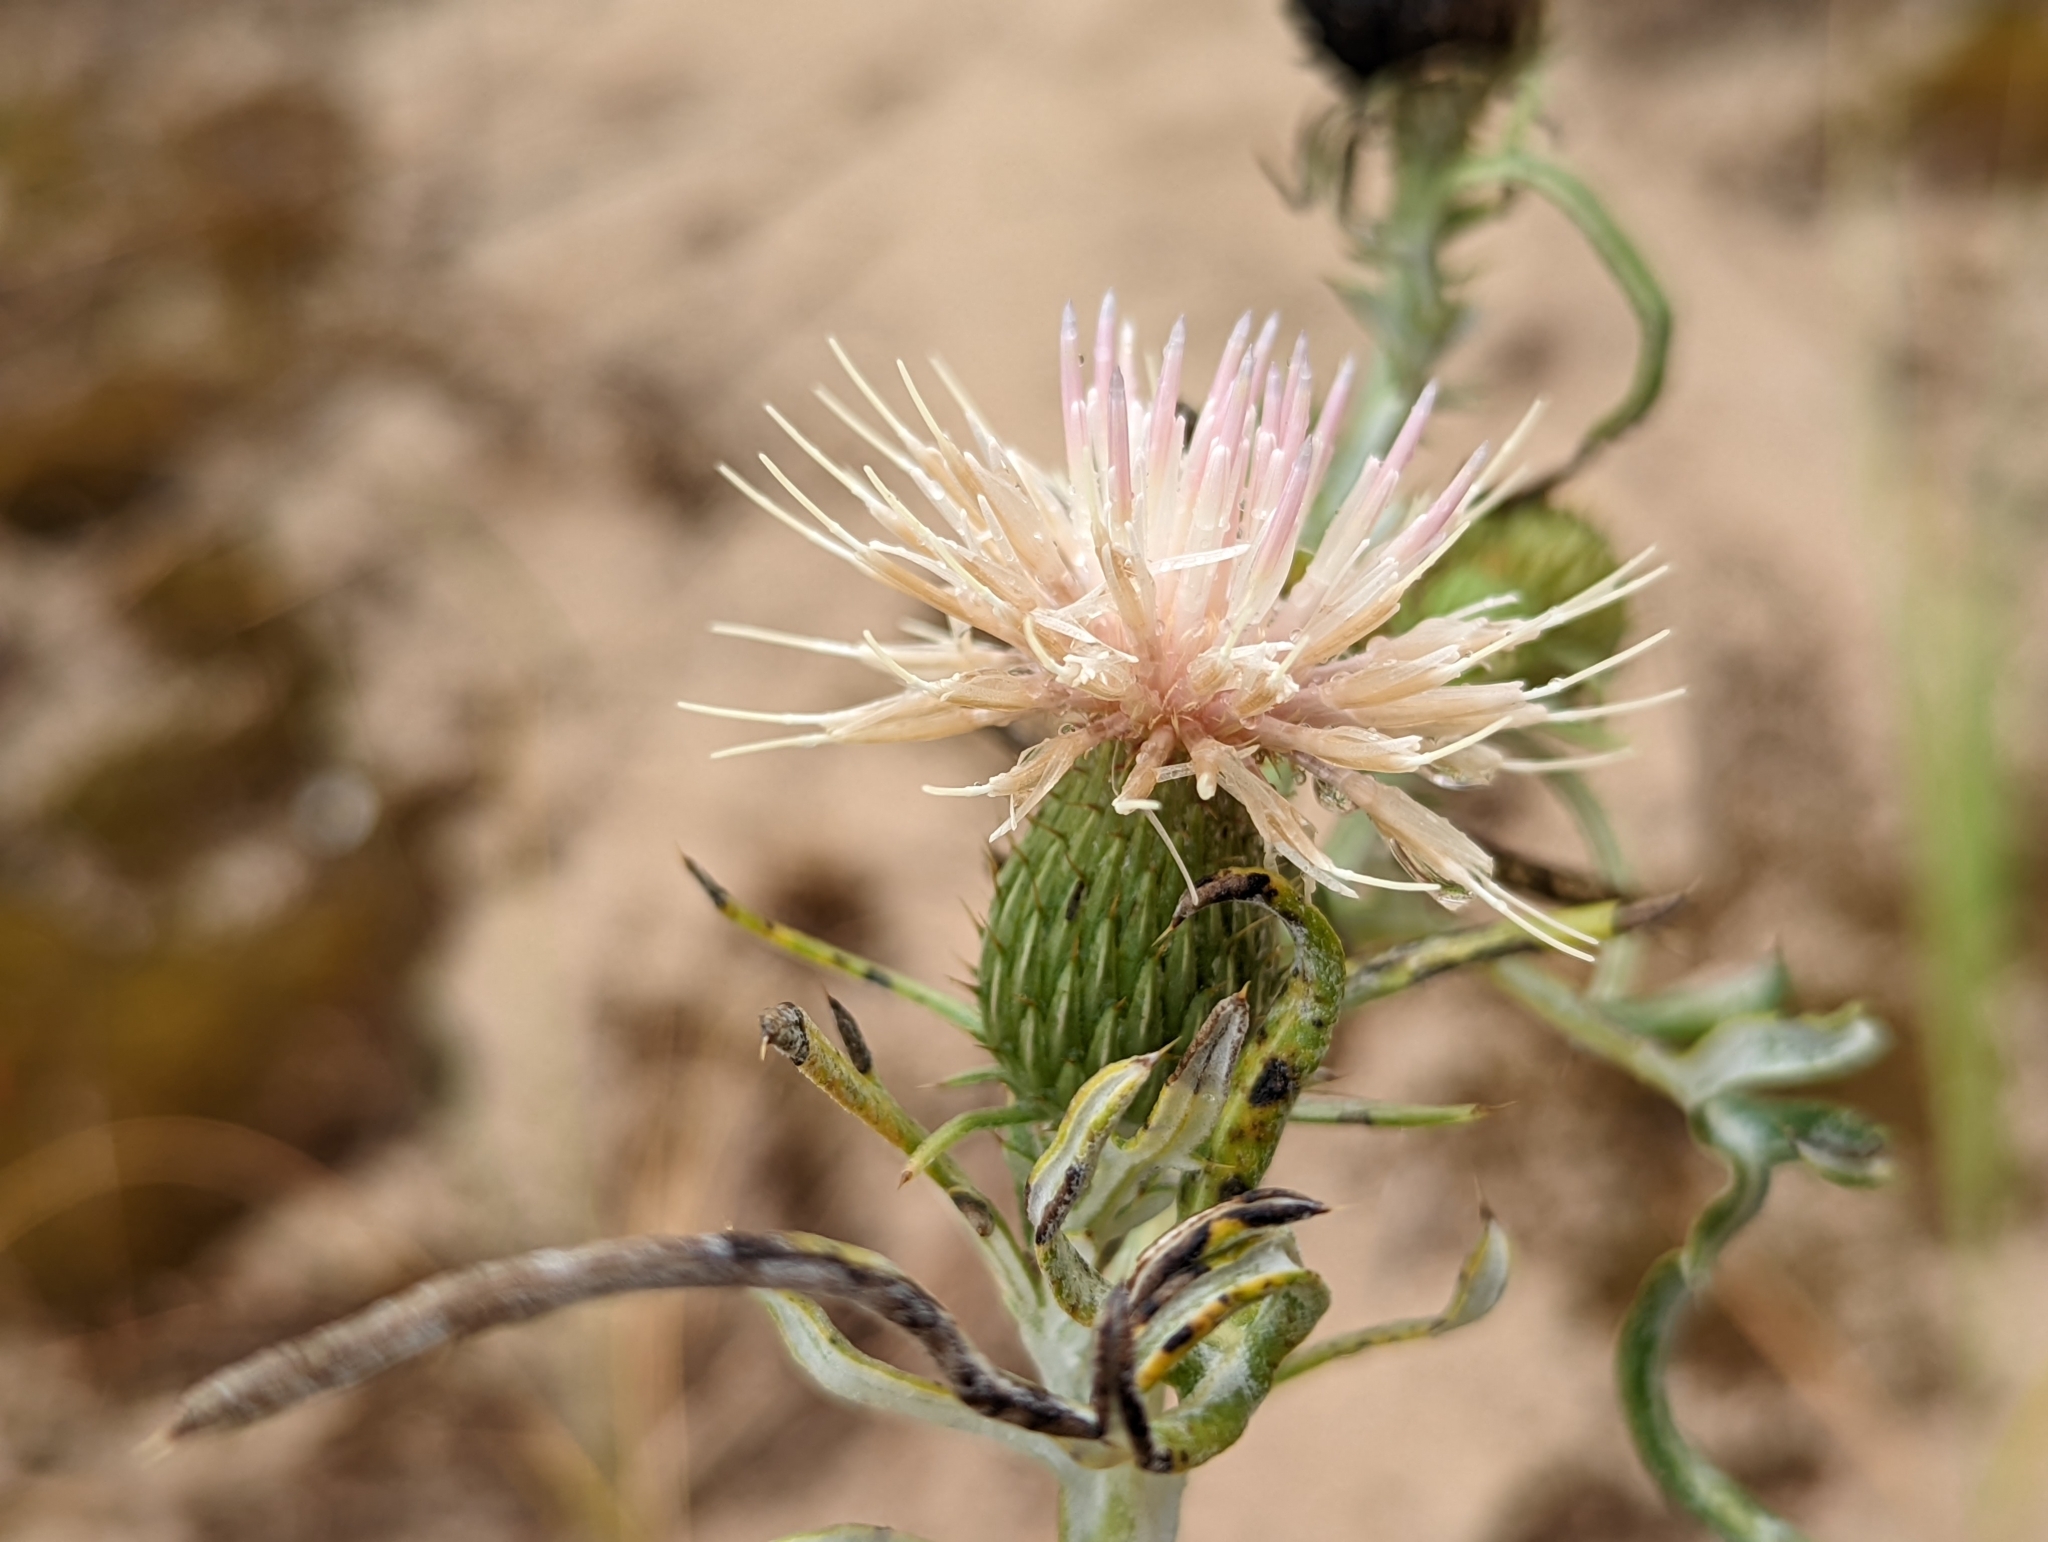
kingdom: Plantae
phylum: Tracheophyta
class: Magnoliopsida
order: Asterales
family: Asteraceae
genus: Cirsium
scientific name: Cirsium pitcheri
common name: Dune thistle
